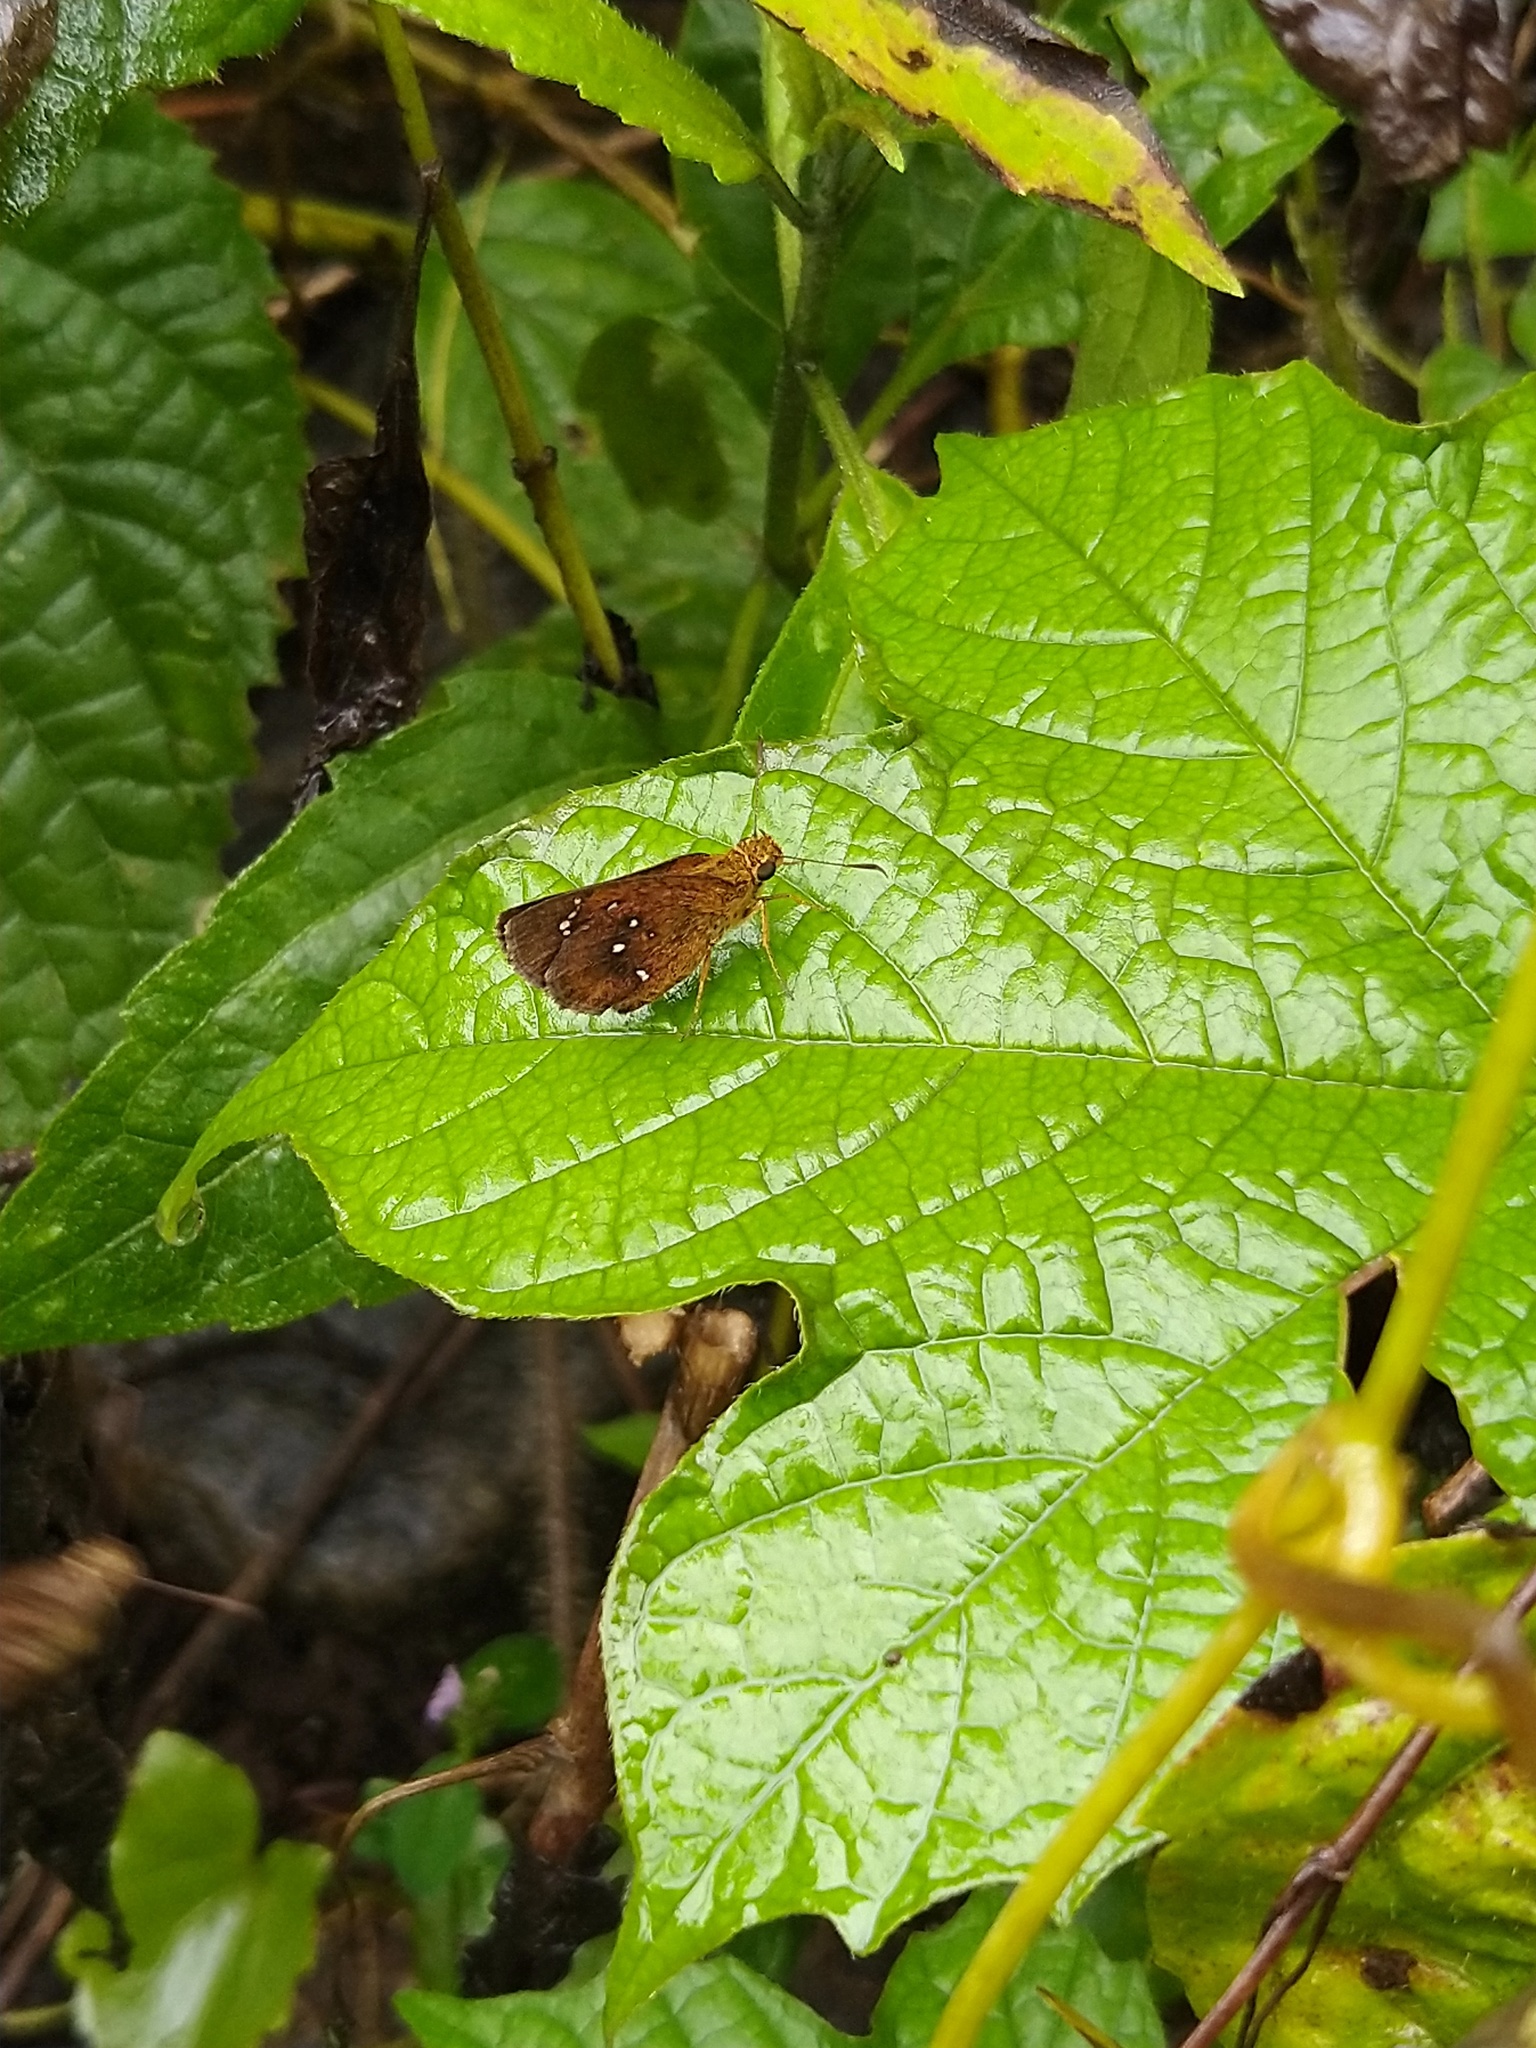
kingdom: Animalia
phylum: Arthropoda
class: Insecta
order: Lepidoptera
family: Hesperiidae
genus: Iambrix
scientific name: Iambrix salsala
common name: Chestnut bob
